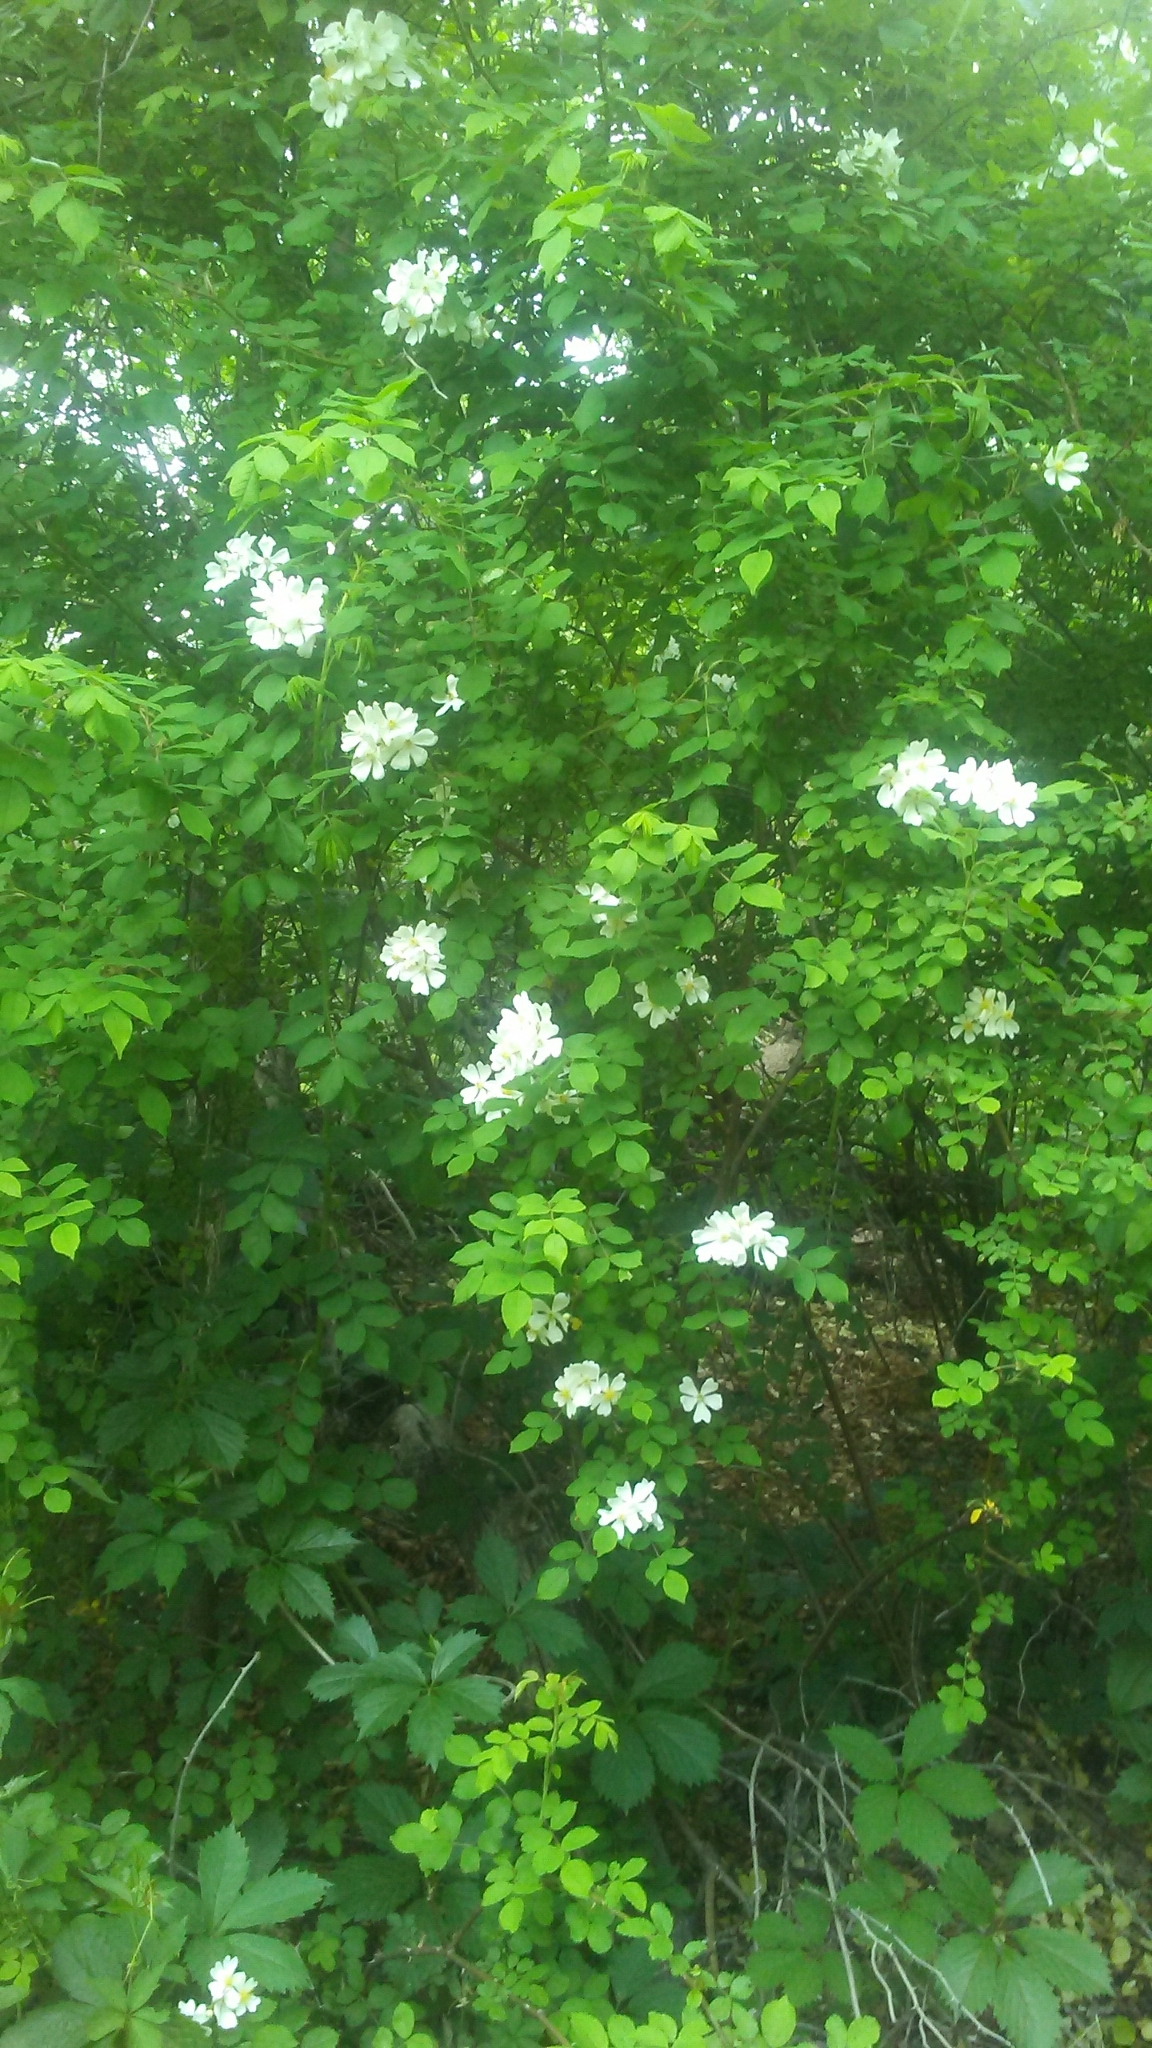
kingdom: Plantae
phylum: Tracheophyta
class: Magnoliopsida
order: Rosales
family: Rosaceae
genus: Rosa
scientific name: Rosa multiflora
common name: Multiflora rose
